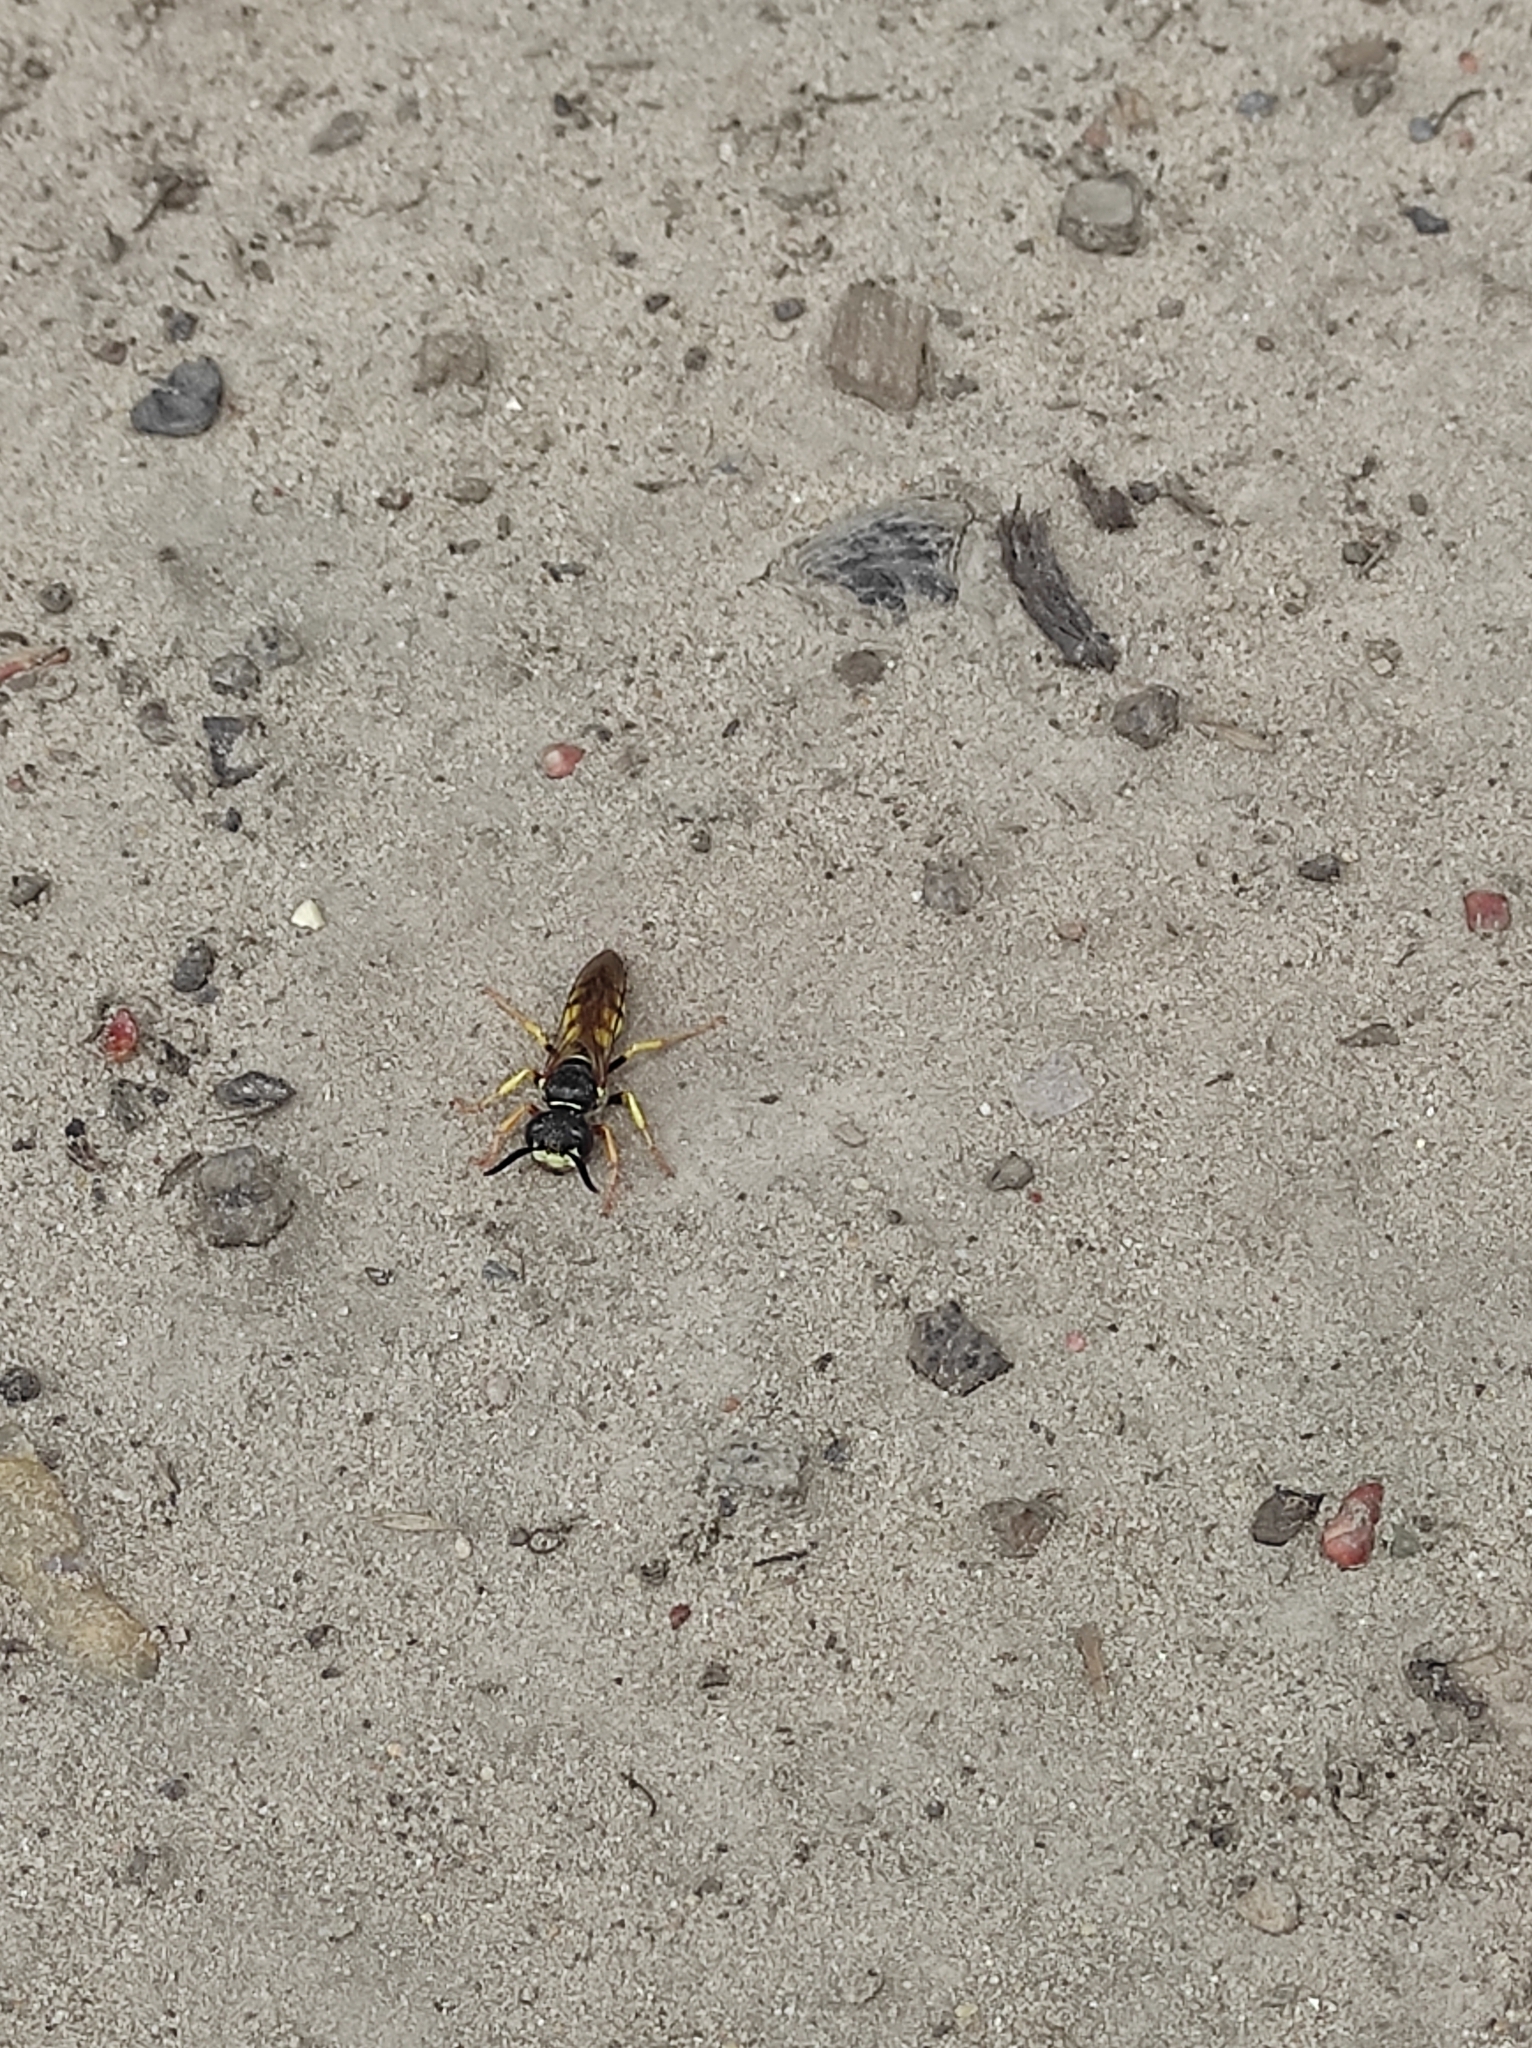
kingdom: Animalia
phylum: Arthropoda
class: Insecta
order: Hymenoptera
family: Crabronidae
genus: Philanthus
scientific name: Philanthus triangulum
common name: Bee wolf
